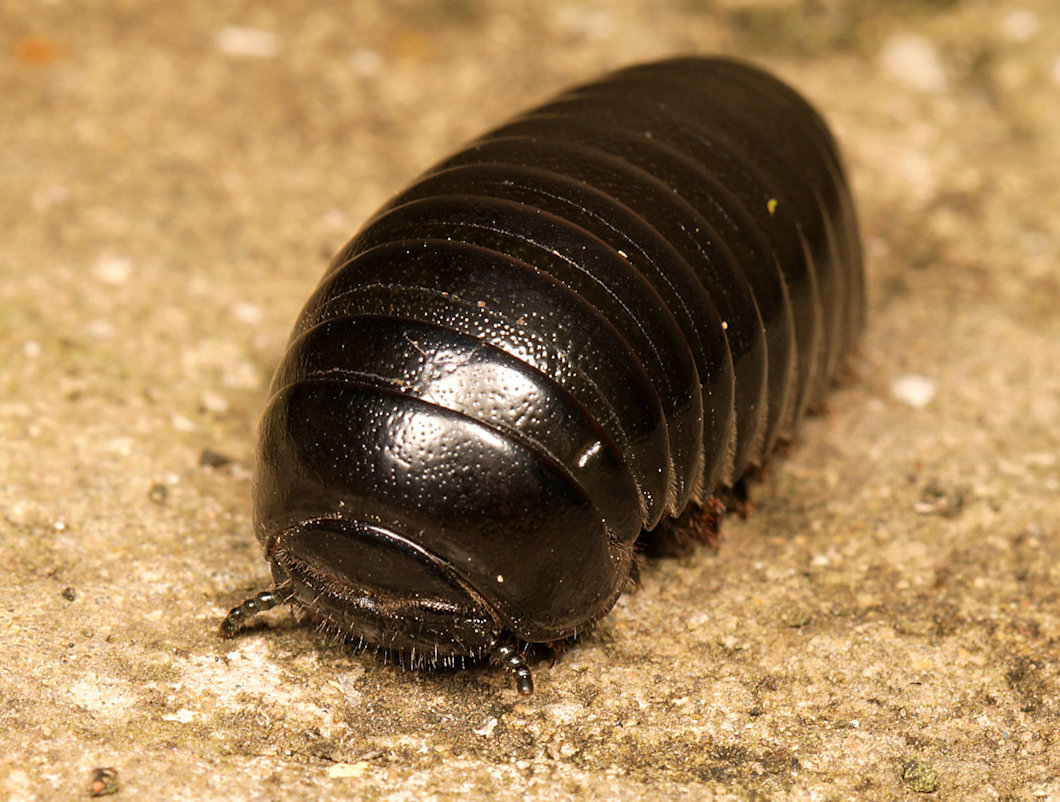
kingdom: Animalia
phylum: Arthropoda
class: Diplopoda
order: Sphaerotheriida
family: Sphaerotheriidae
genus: Sphaerotherium
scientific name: Sphaerotherium
